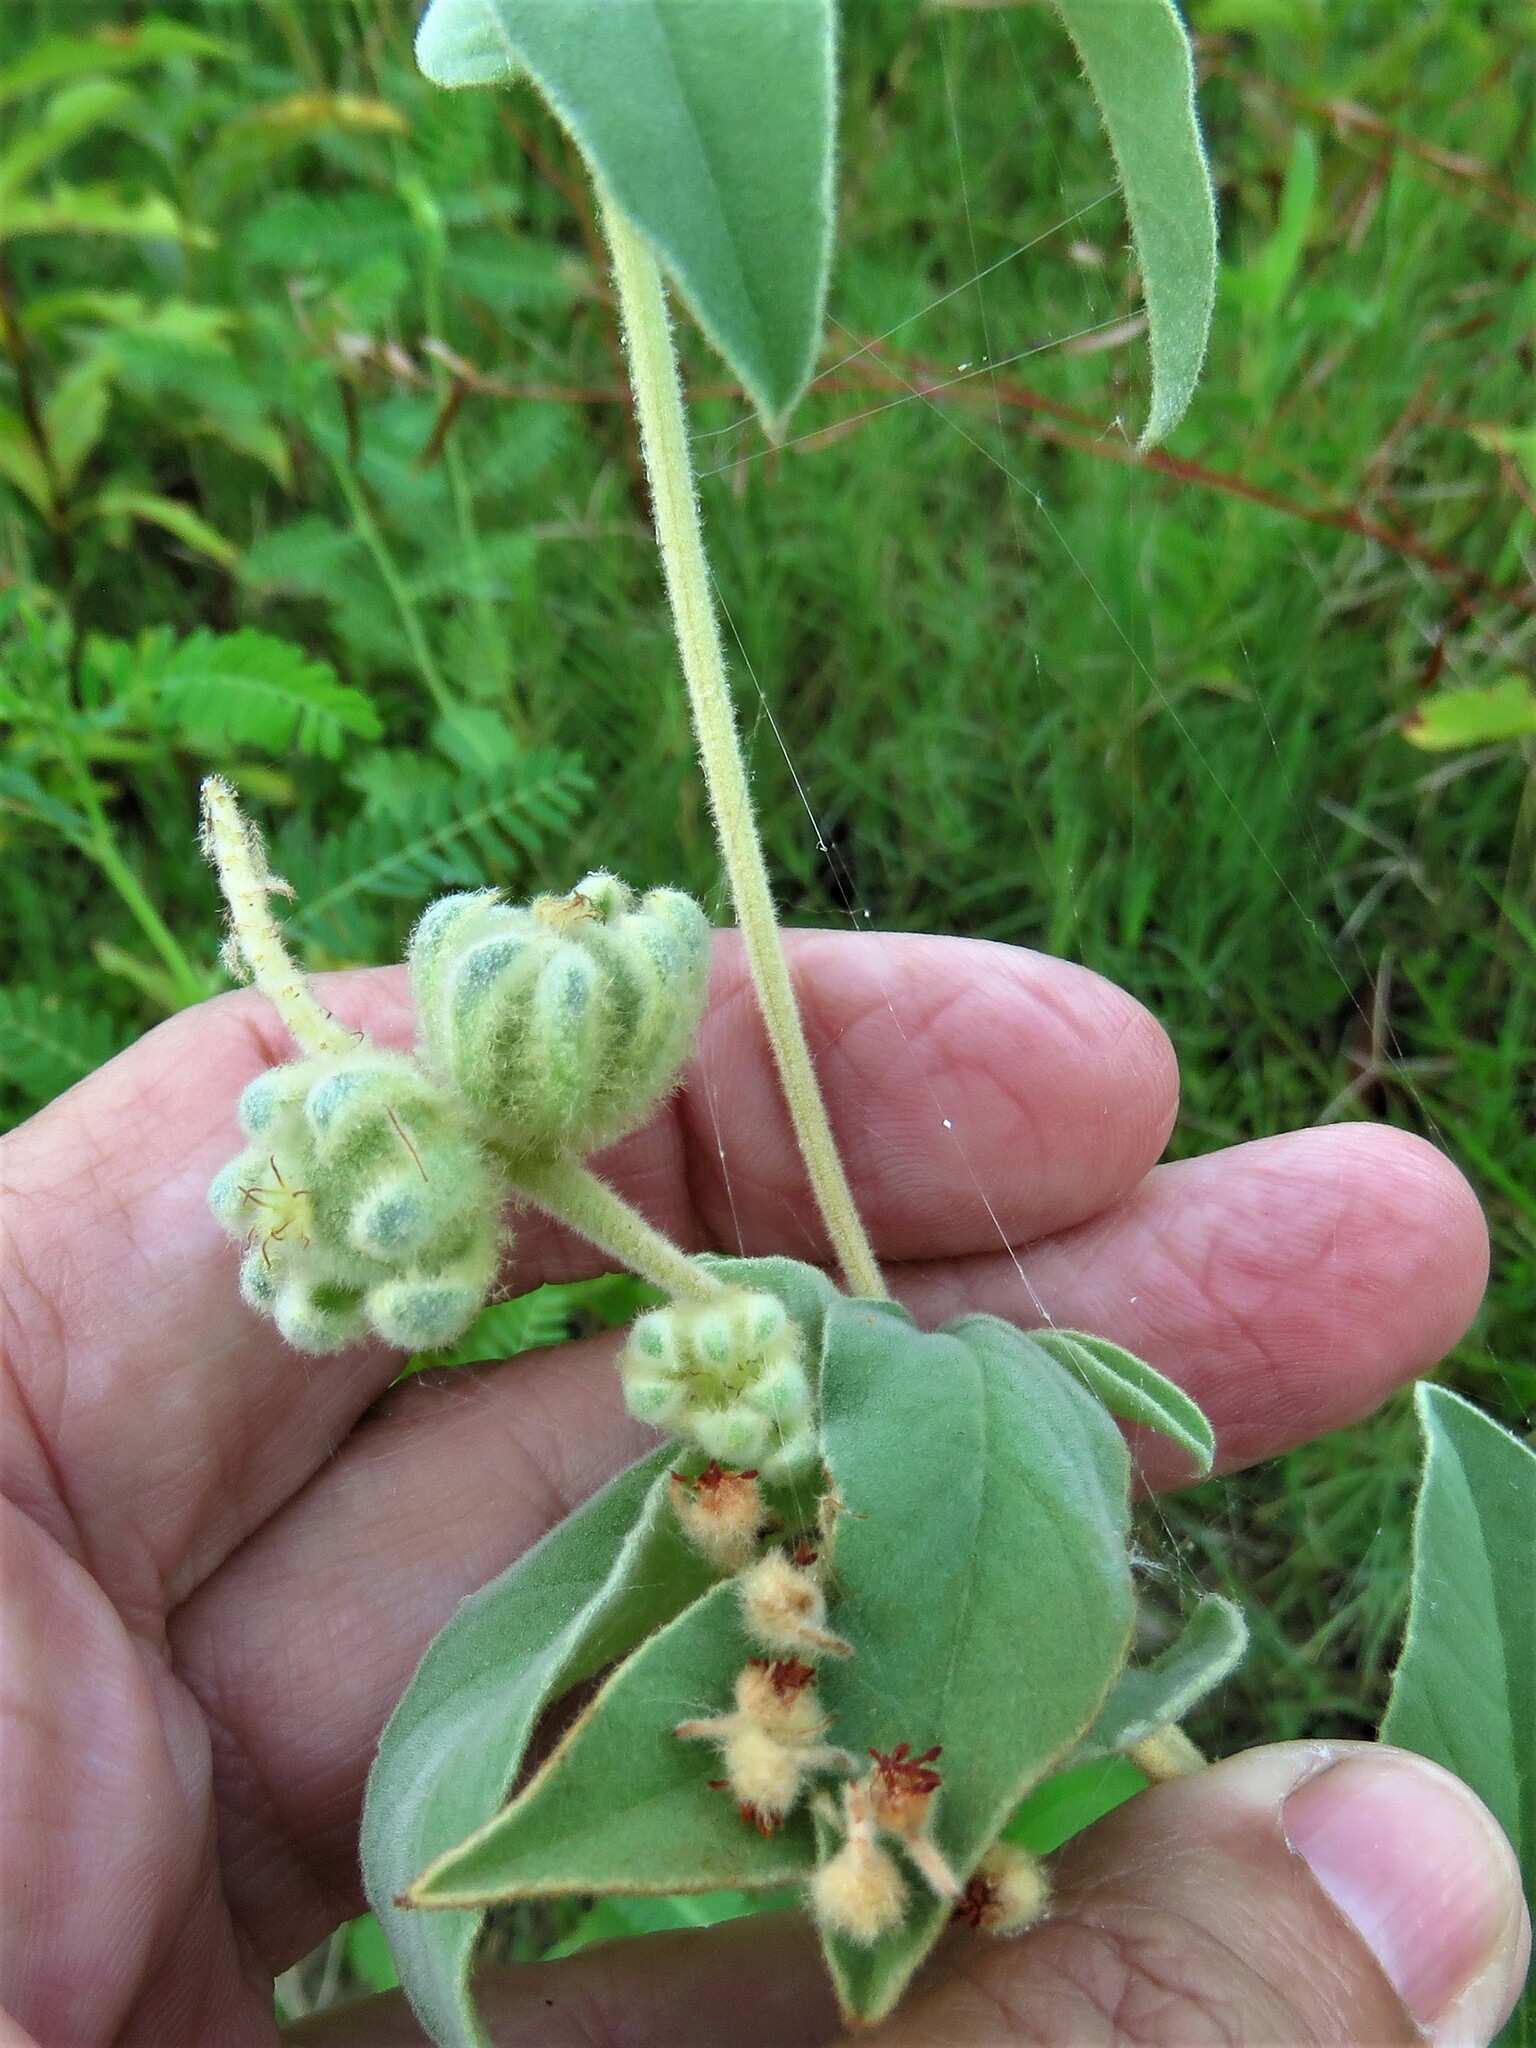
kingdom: Plantae
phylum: Tracheophyta
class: Magnoliopsida
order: Malpighiales
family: Euphorbiaceae
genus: Croton
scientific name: Croton lindheimeri
